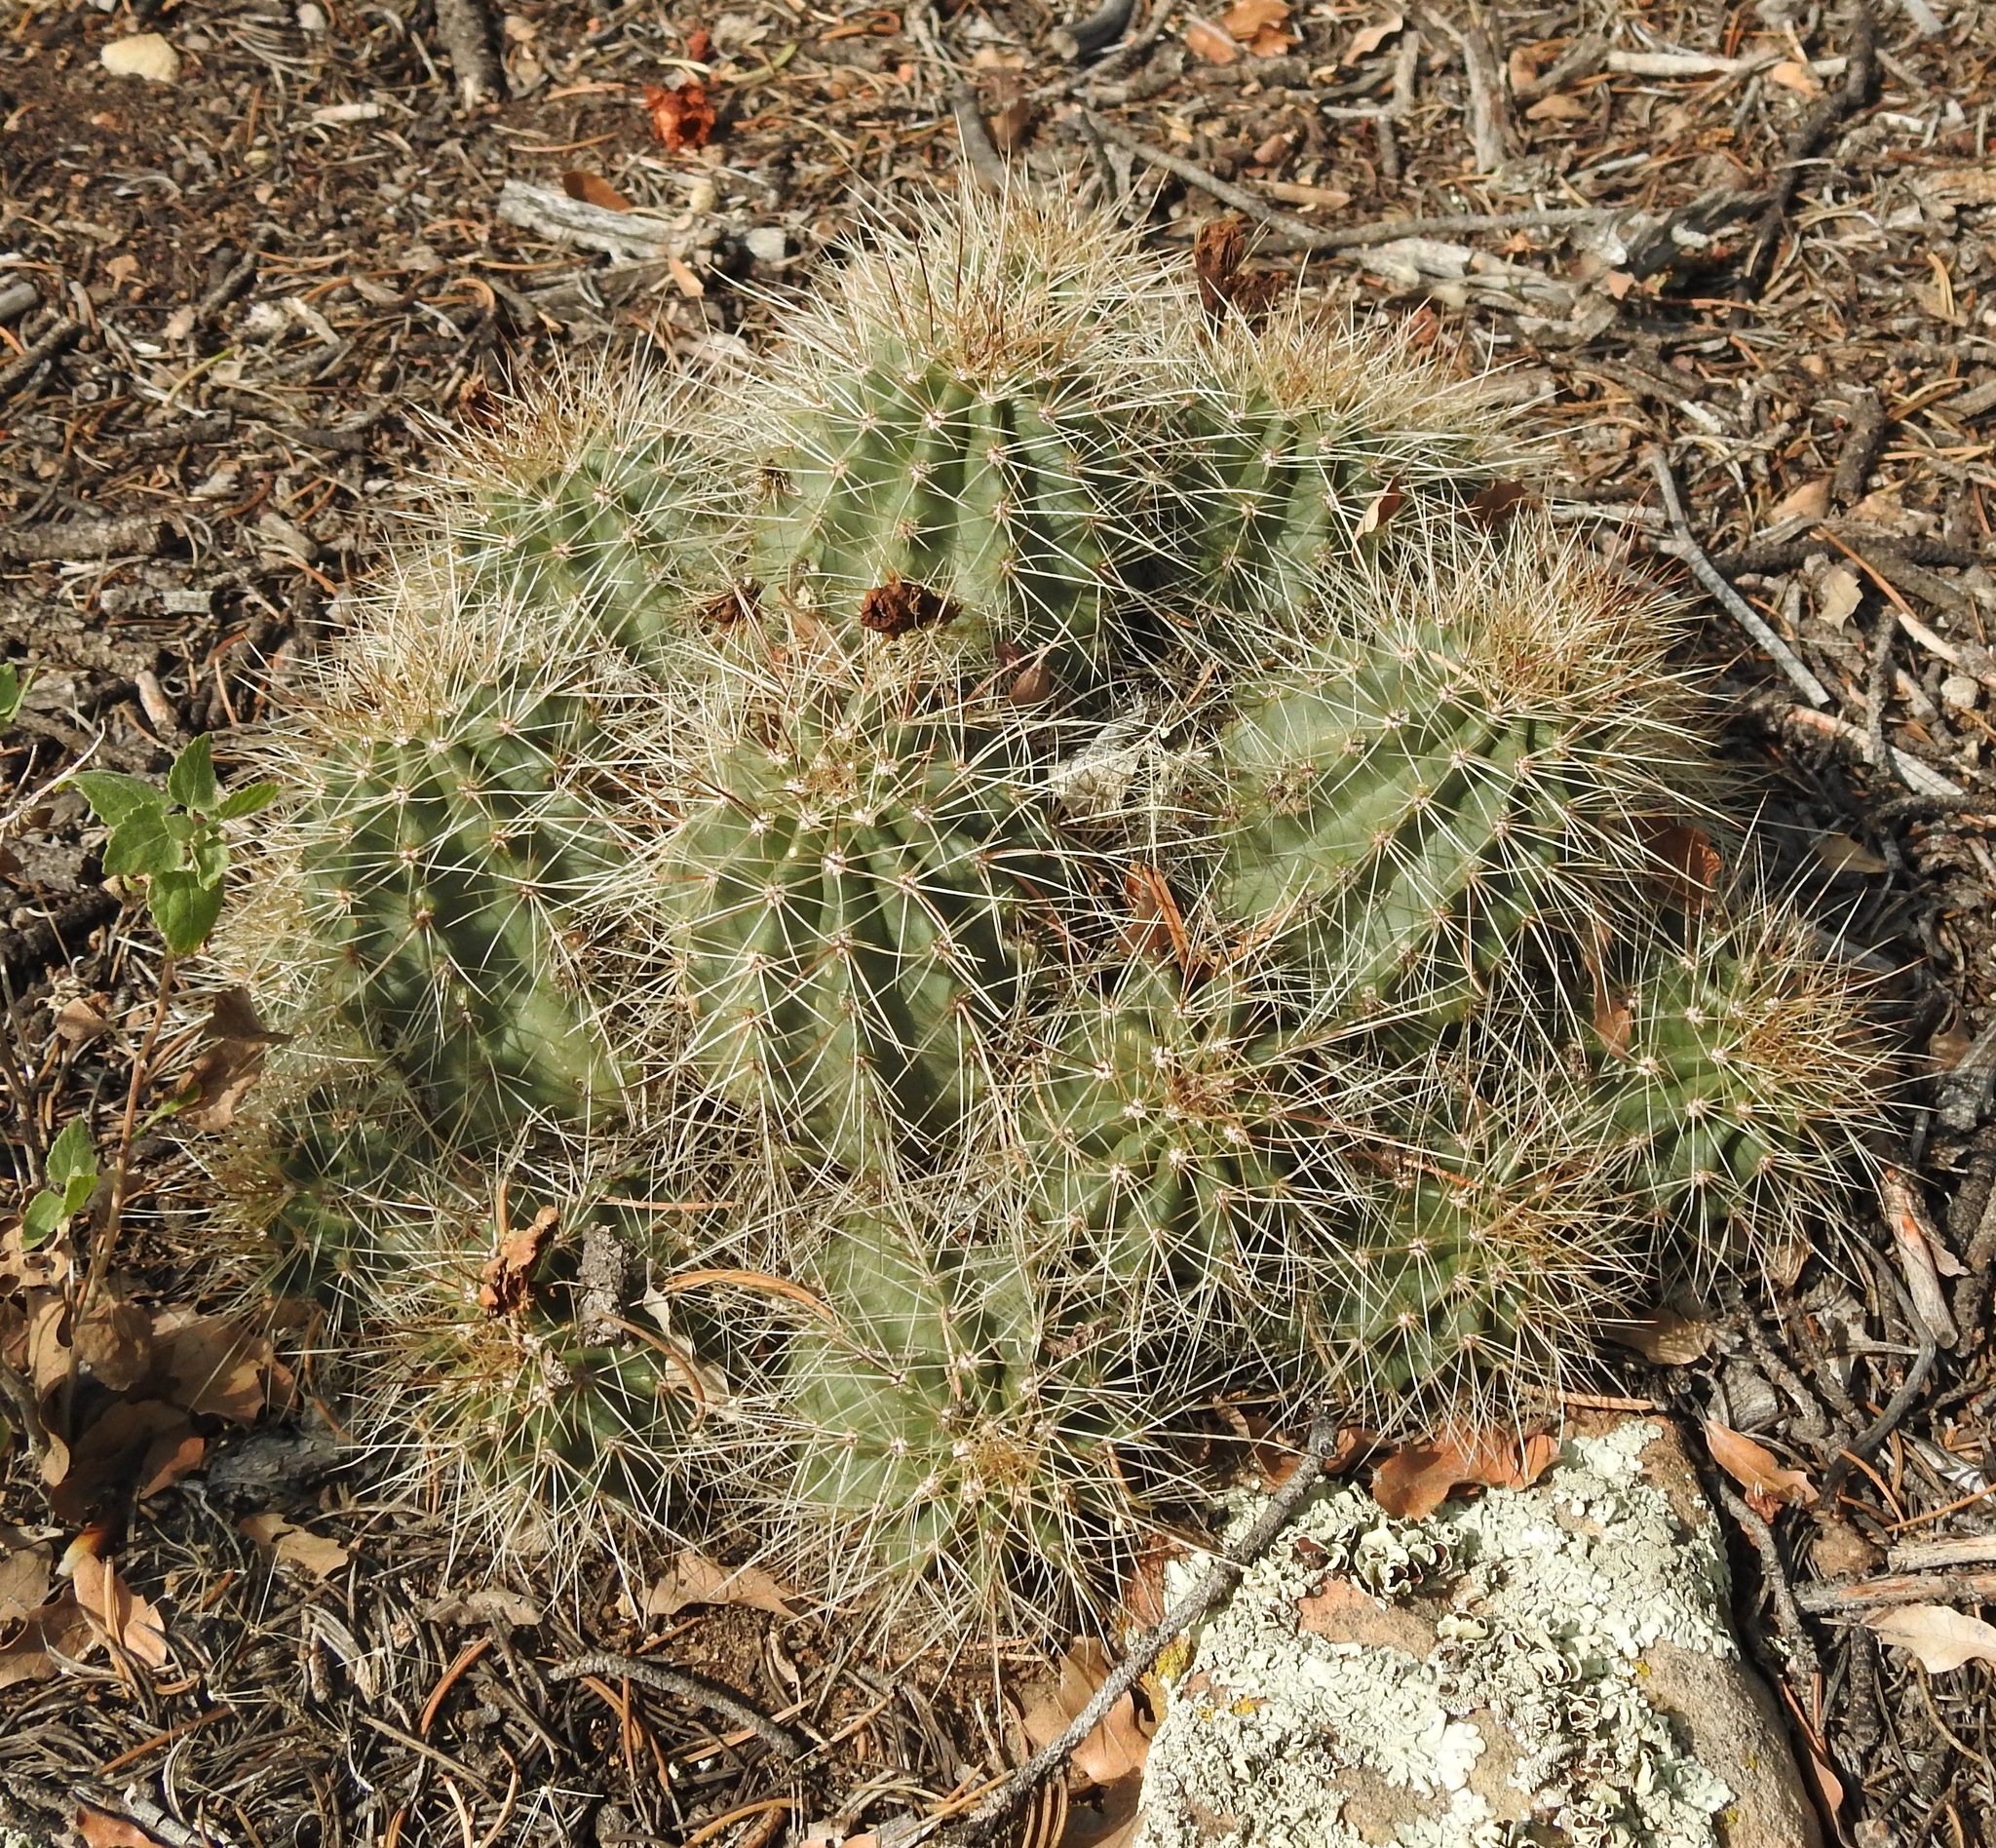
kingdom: Plantae
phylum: Tracheophyta
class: Magnoliopsida
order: Caryophyllales
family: Cactaceae
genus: Echinocereus
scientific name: Echinocereus coccineus
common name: Scarlet hedgehog cactus
